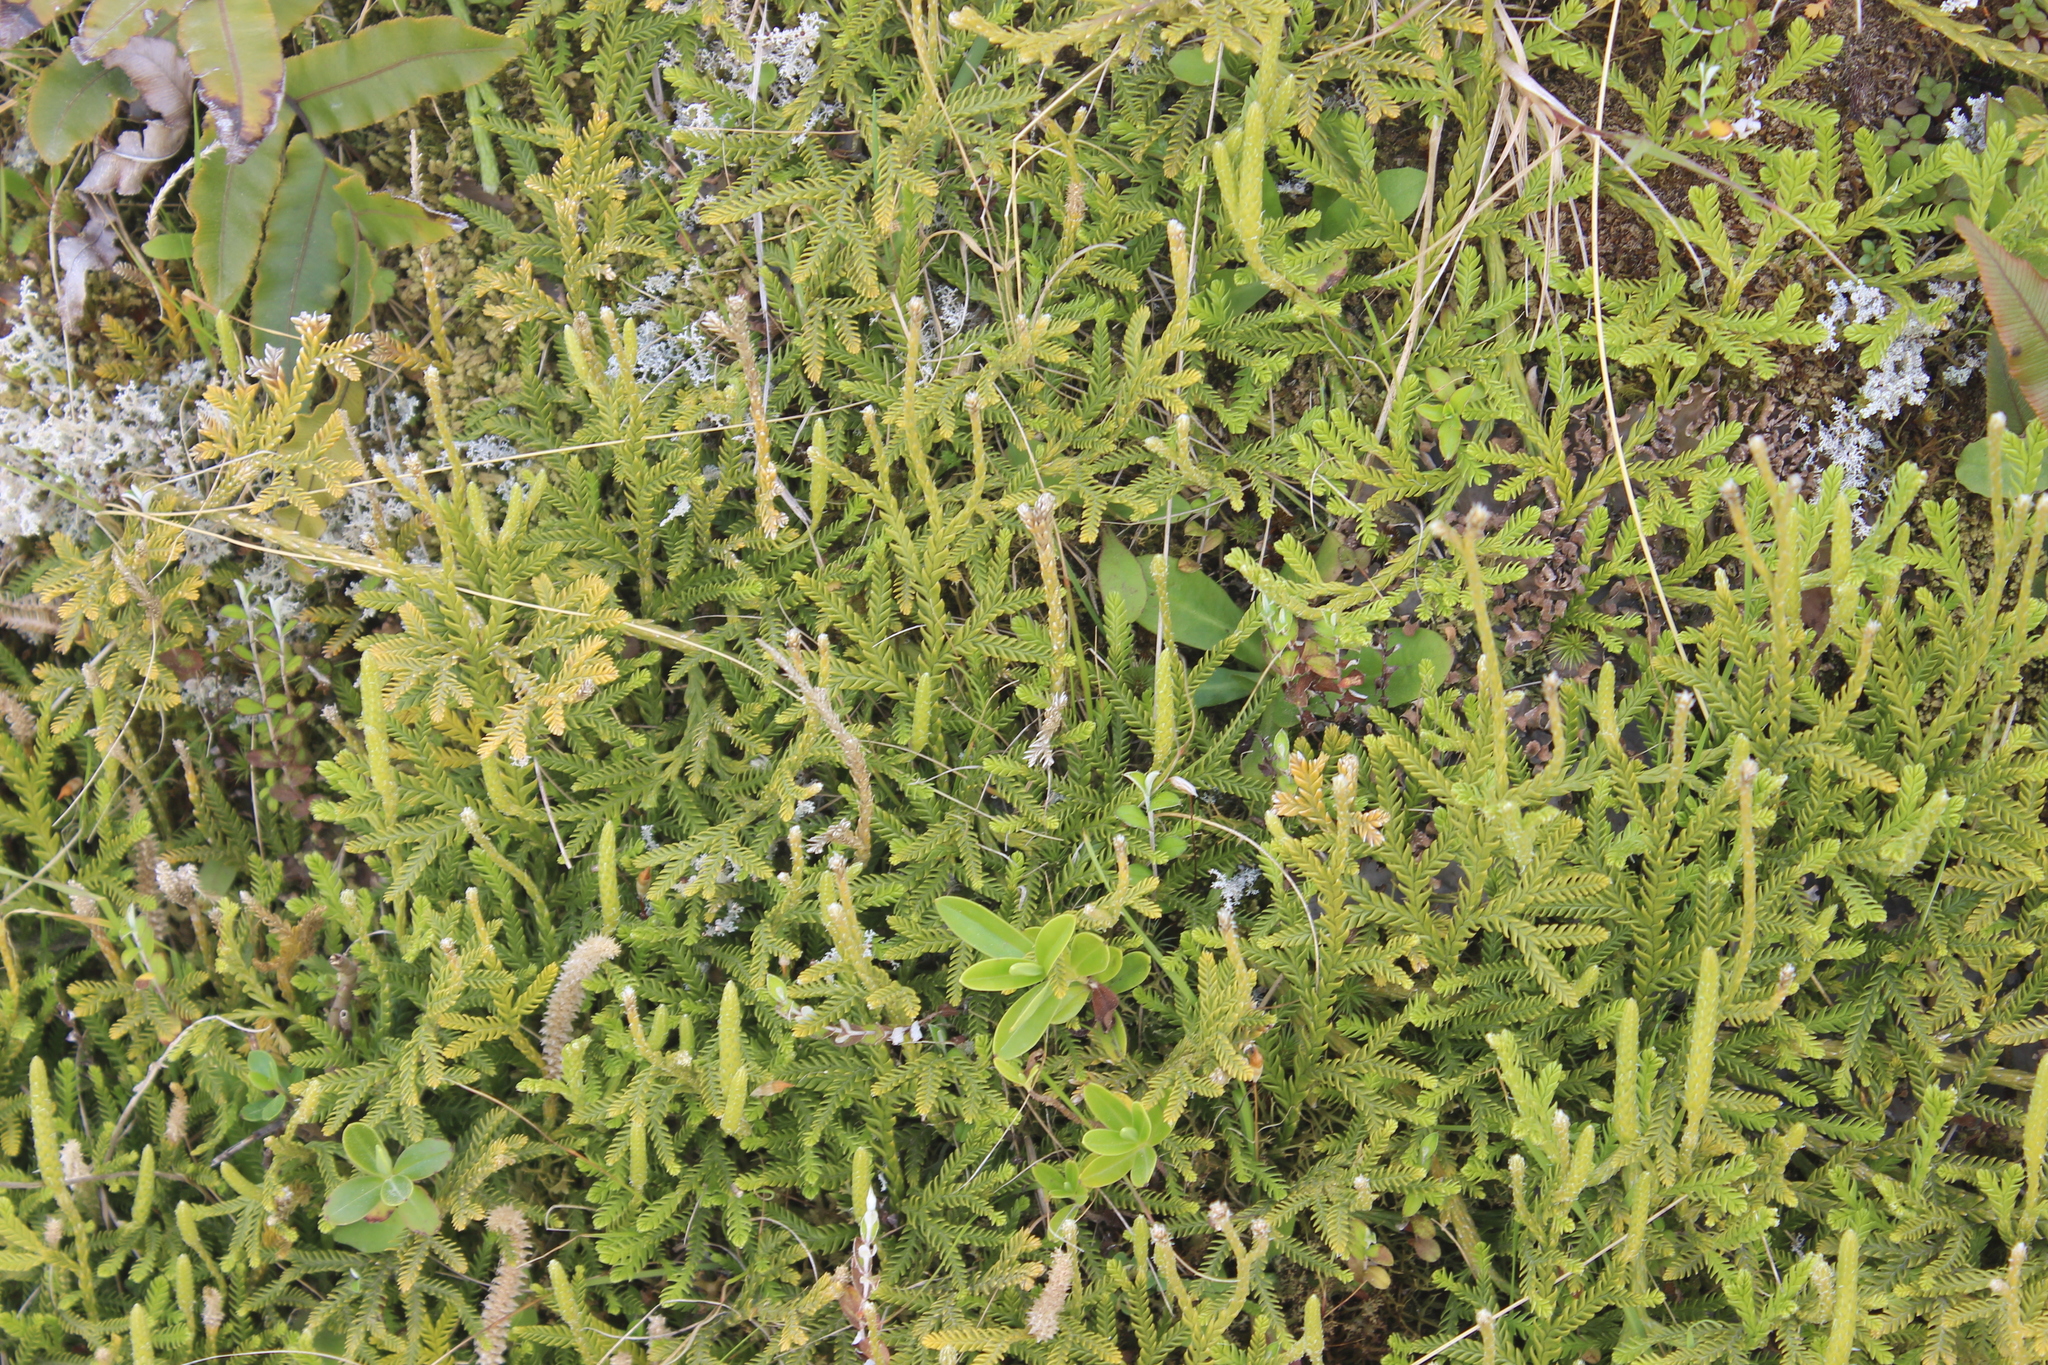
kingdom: Plantae
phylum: Tracheophyta
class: Lycopodiopsida
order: Lycopodiales
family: Lycopodiaceae
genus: Diphasium
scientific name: Diphasium scariosum
